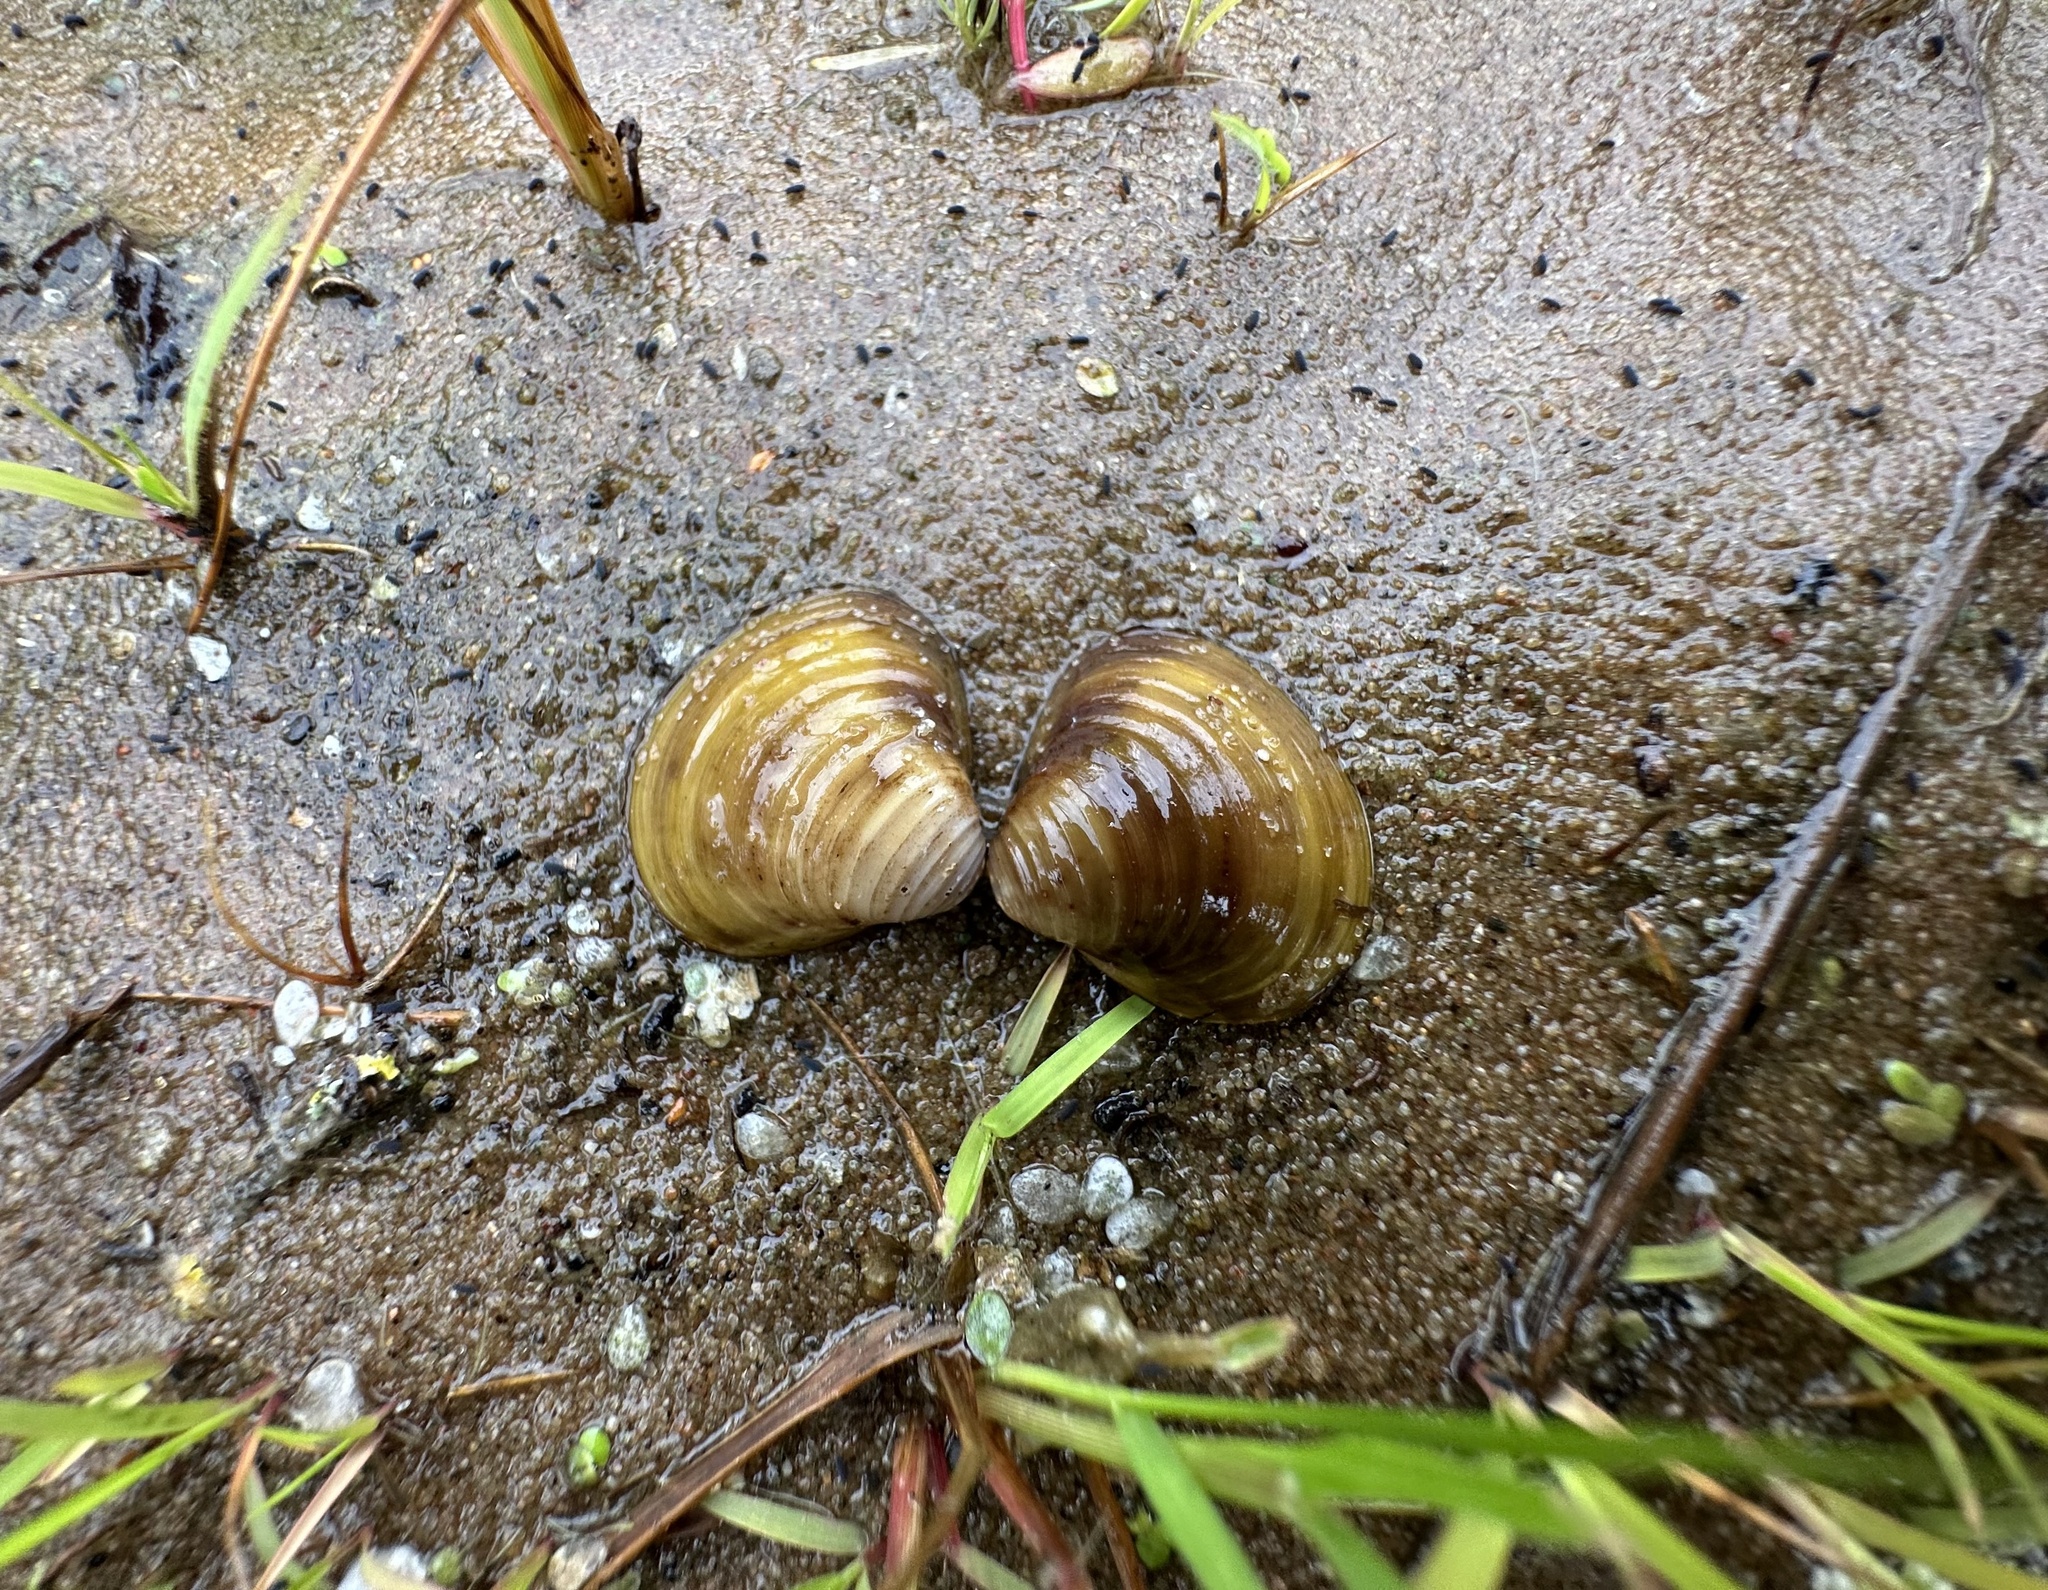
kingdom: Animalia
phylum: Mollusca
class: Bivalvia
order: Venerida
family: Cyrenidae
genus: Corbicula
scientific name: Corbicula fluminea
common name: Asian clam
